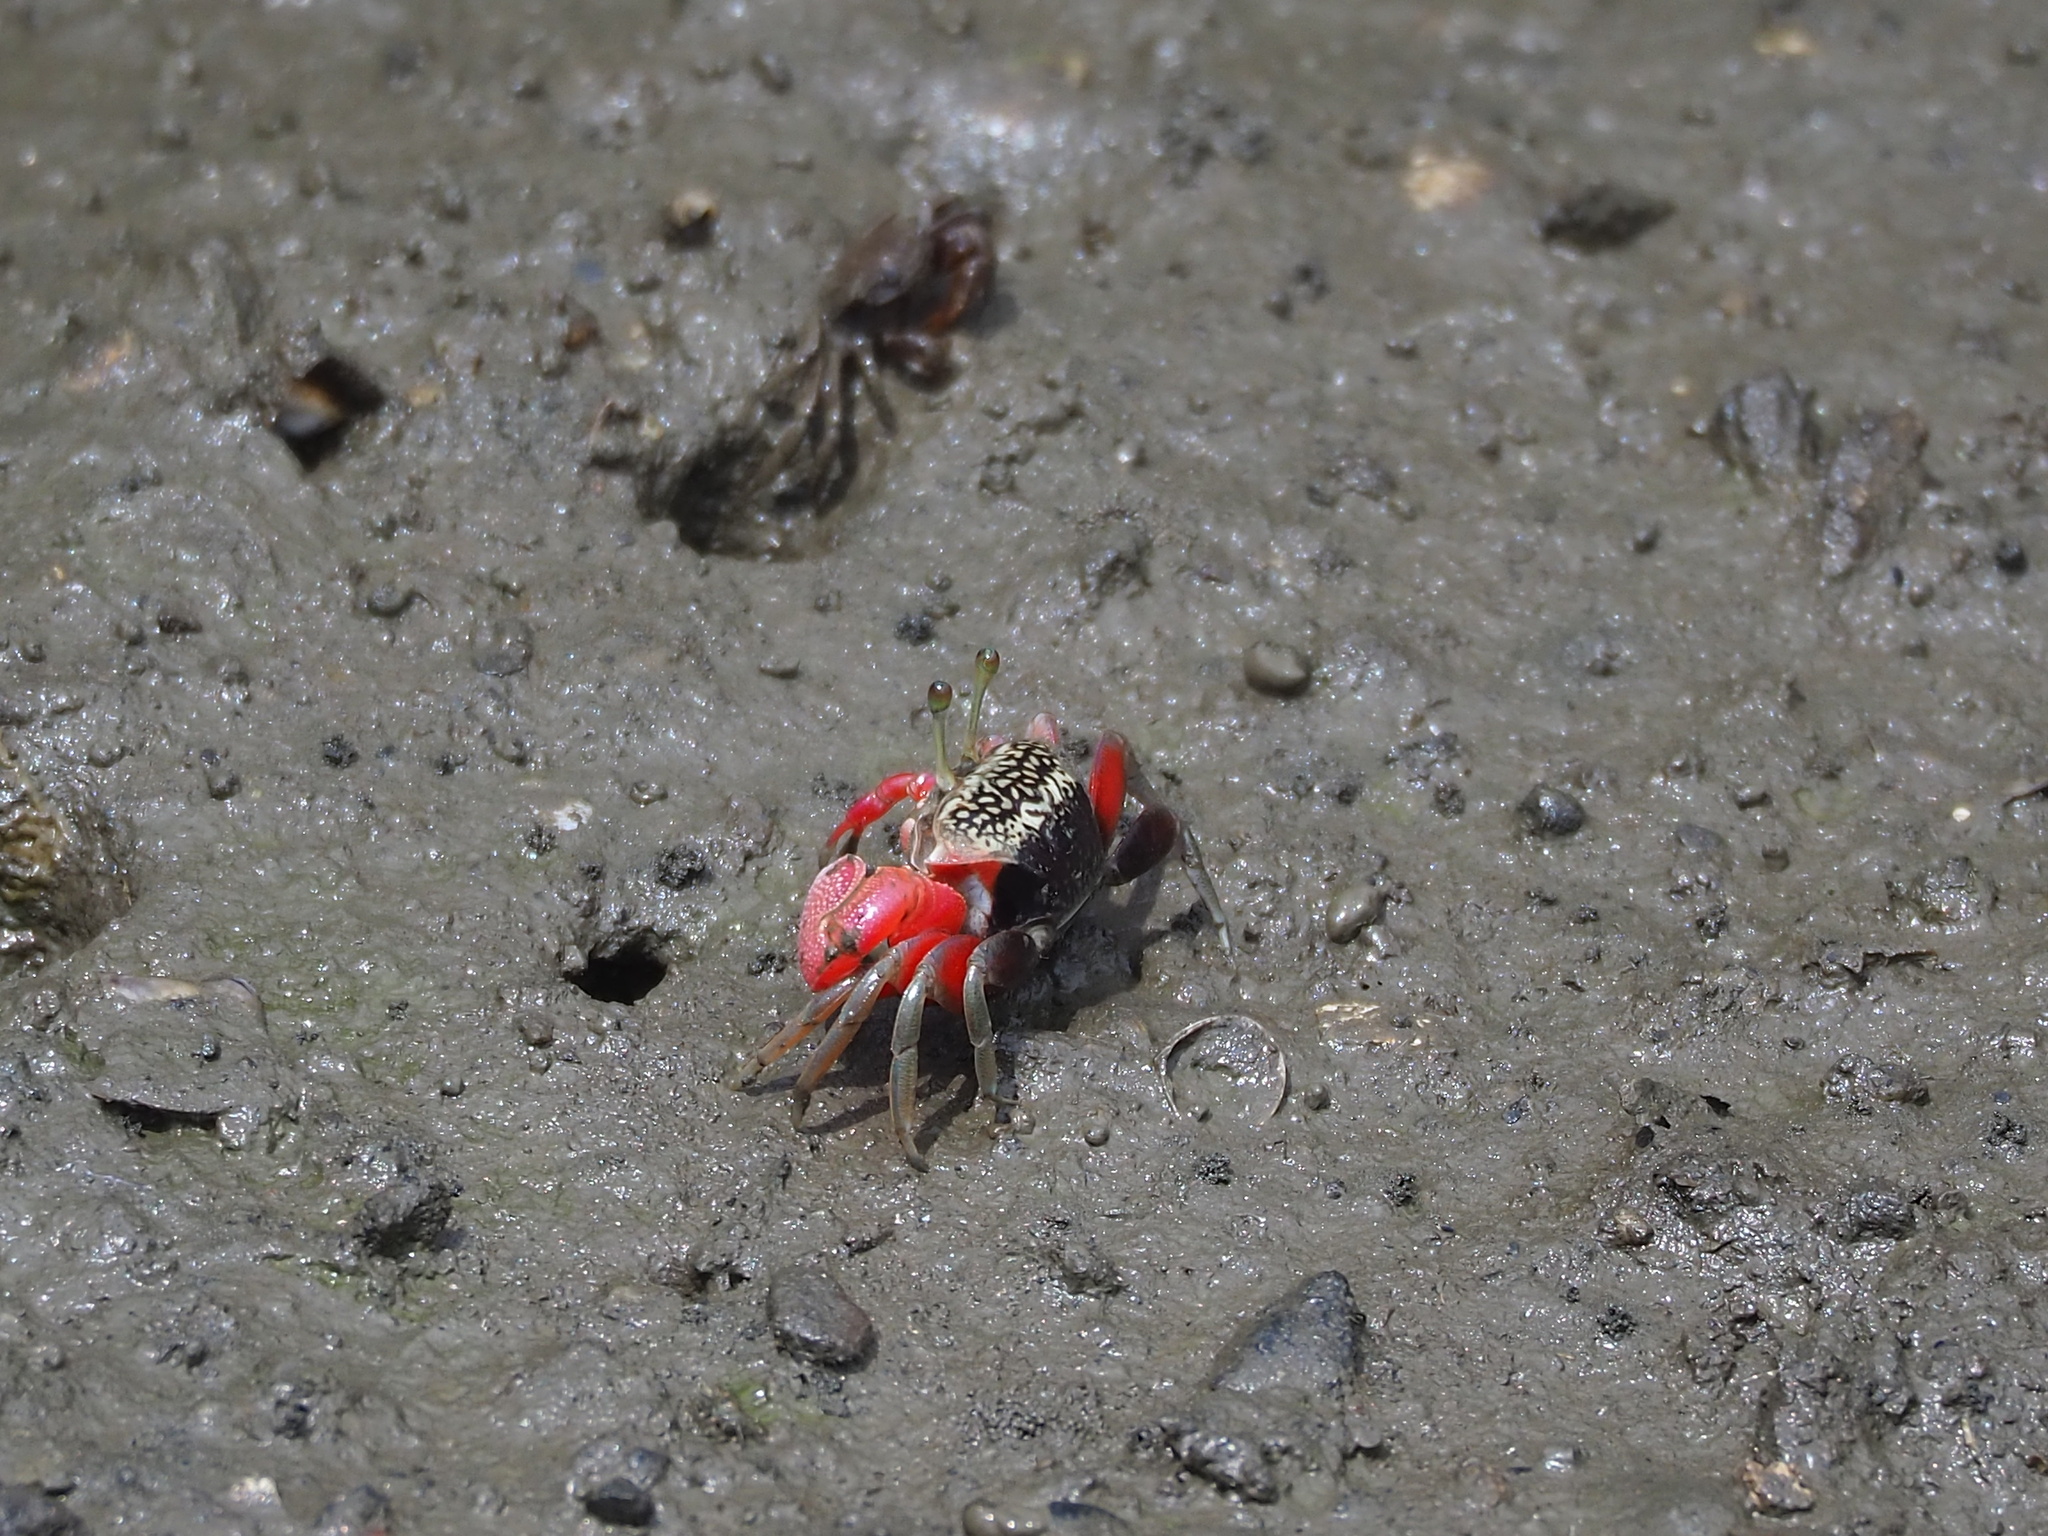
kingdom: Animalia
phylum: Arthropoda
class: Malacostraca
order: Decapoda
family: Ocypodidae
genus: Tubuca
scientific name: Tubuca arcuata
